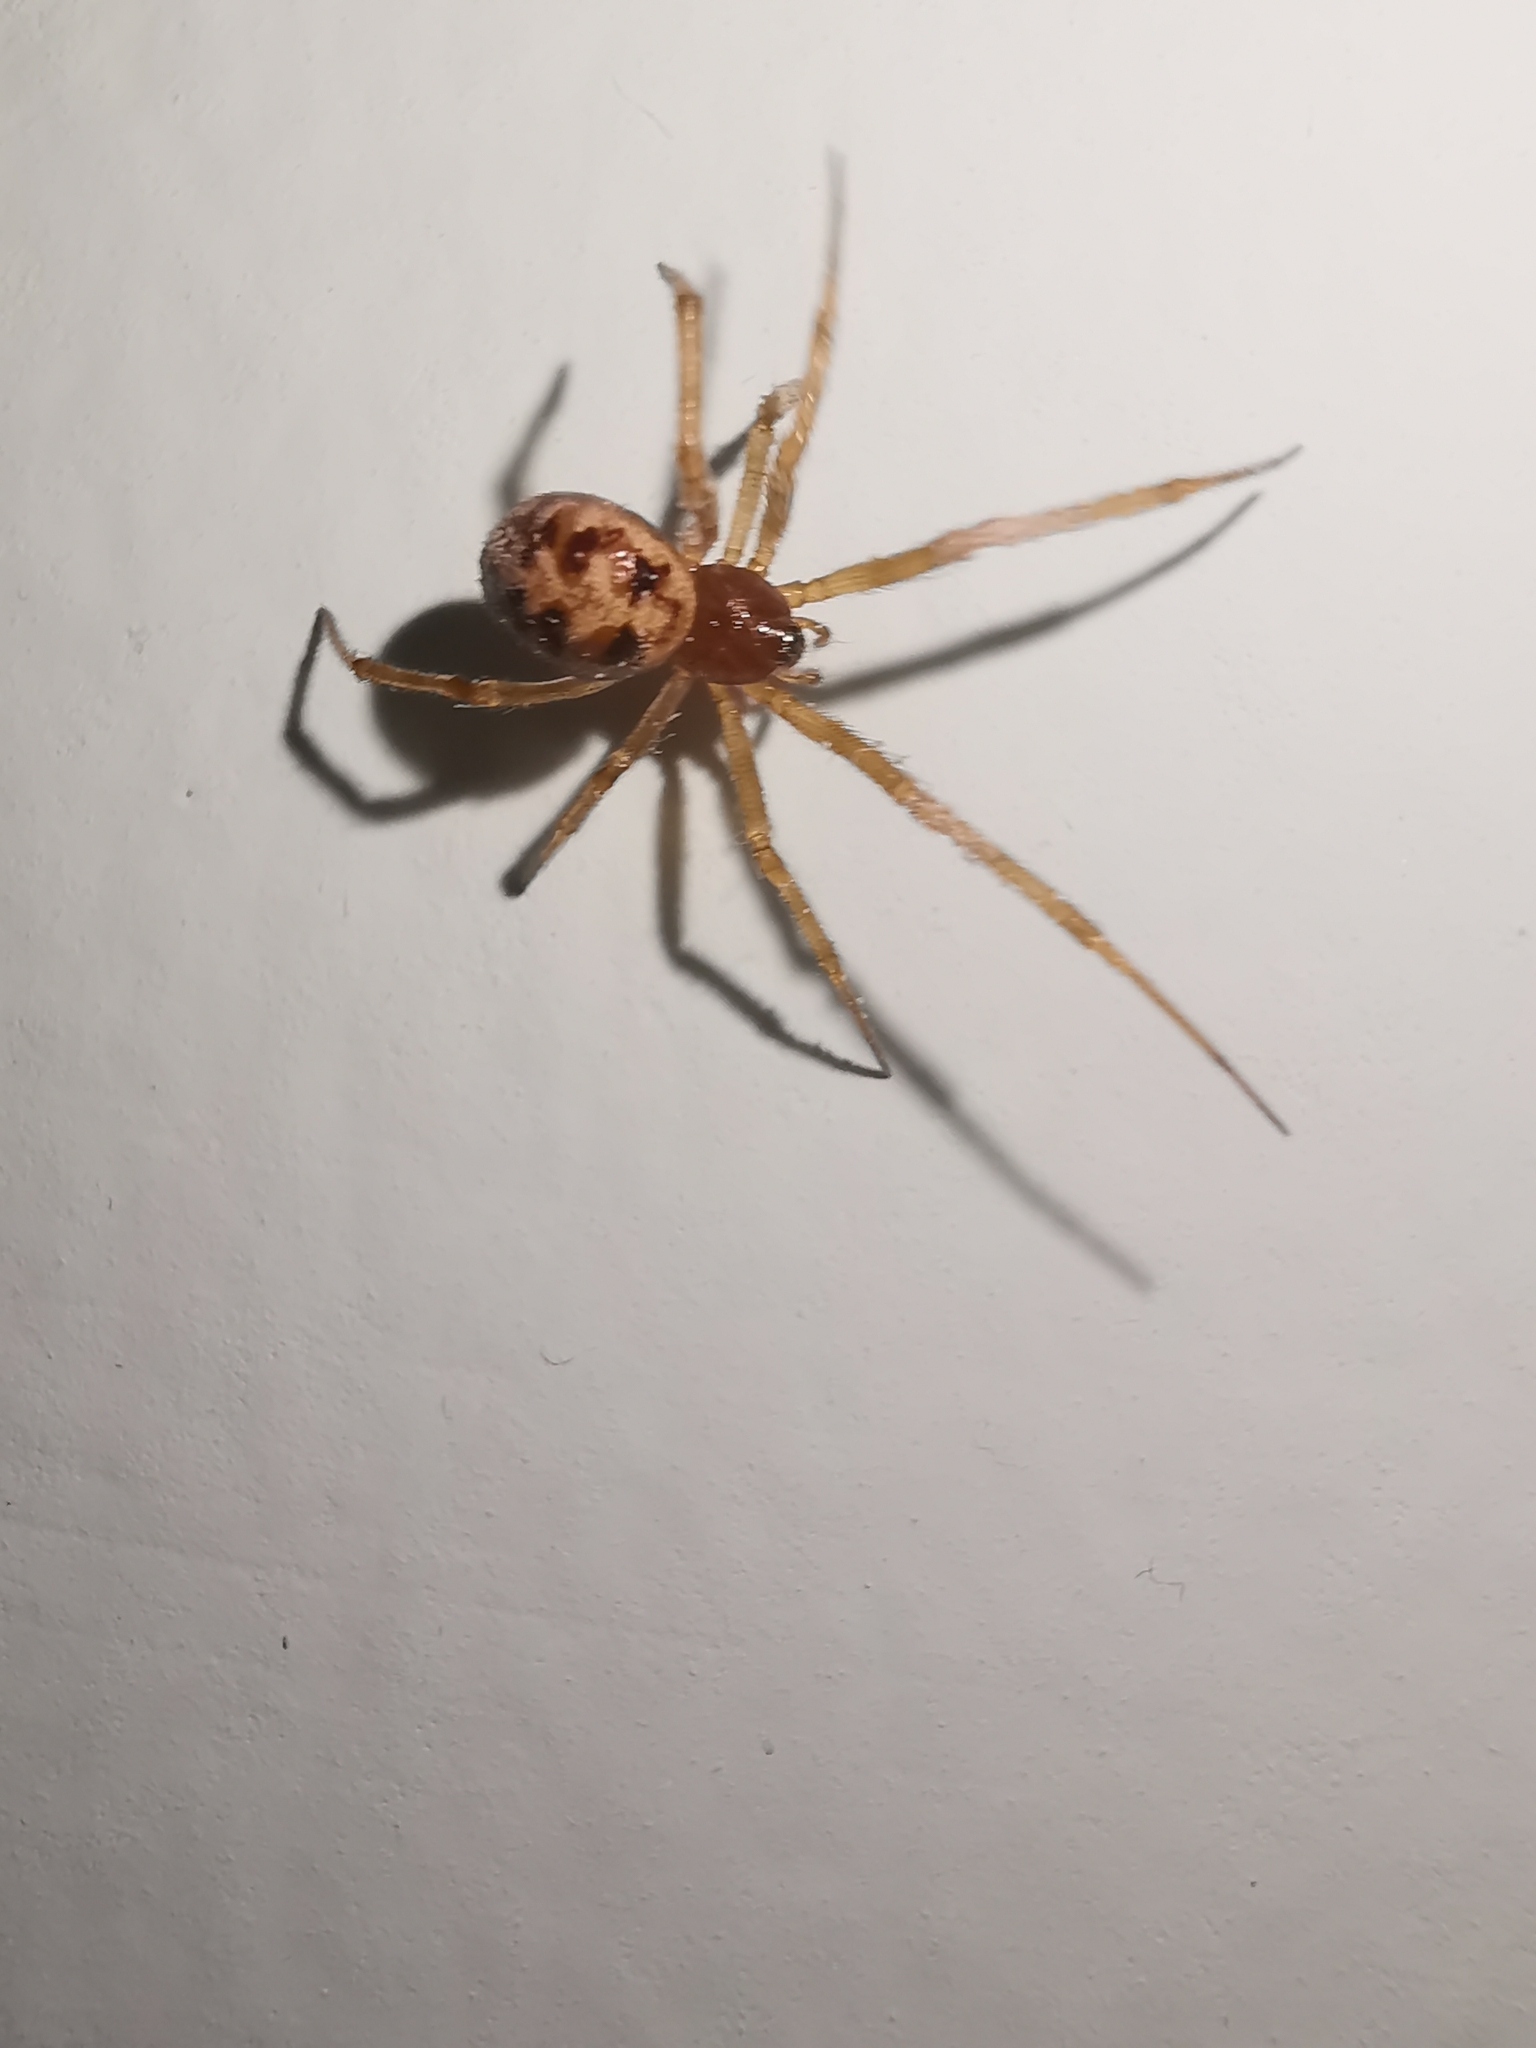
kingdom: Animalia
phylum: Arthropoda
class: Arachnida
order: Araneae
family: Theridiidae
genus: Steatoda
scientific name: Steatoda triangulosa
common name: Triangulate bud spider
